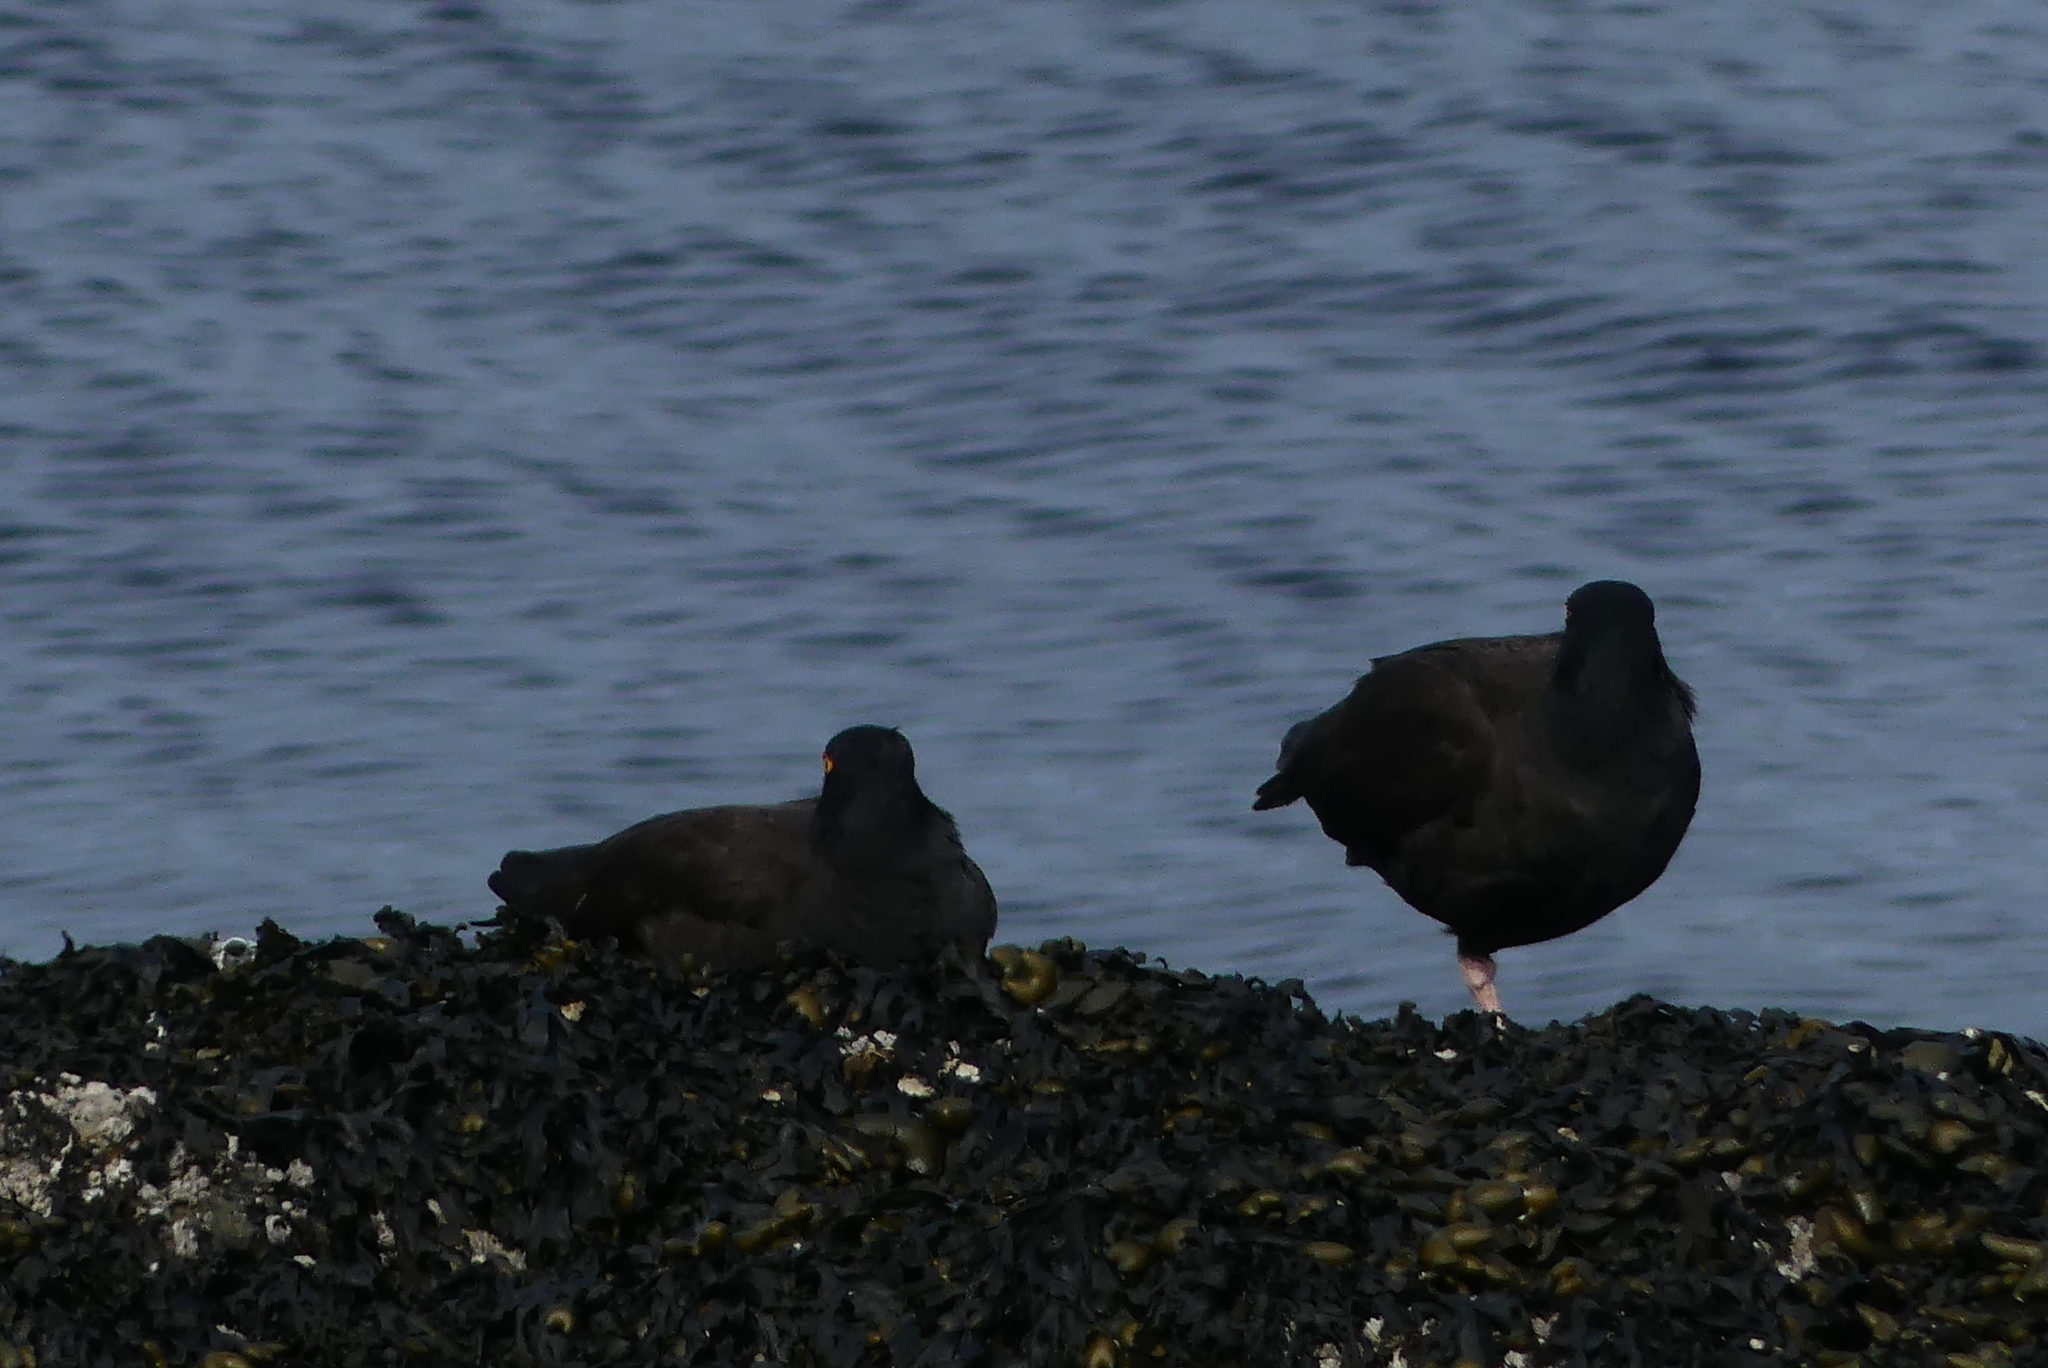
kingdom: Animalia
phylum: Chordata
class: Aves
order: Charadriiformes
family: Haematopodidae
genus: Haematopus
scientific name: Haematopus bachmani
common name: Black oystercatcher
